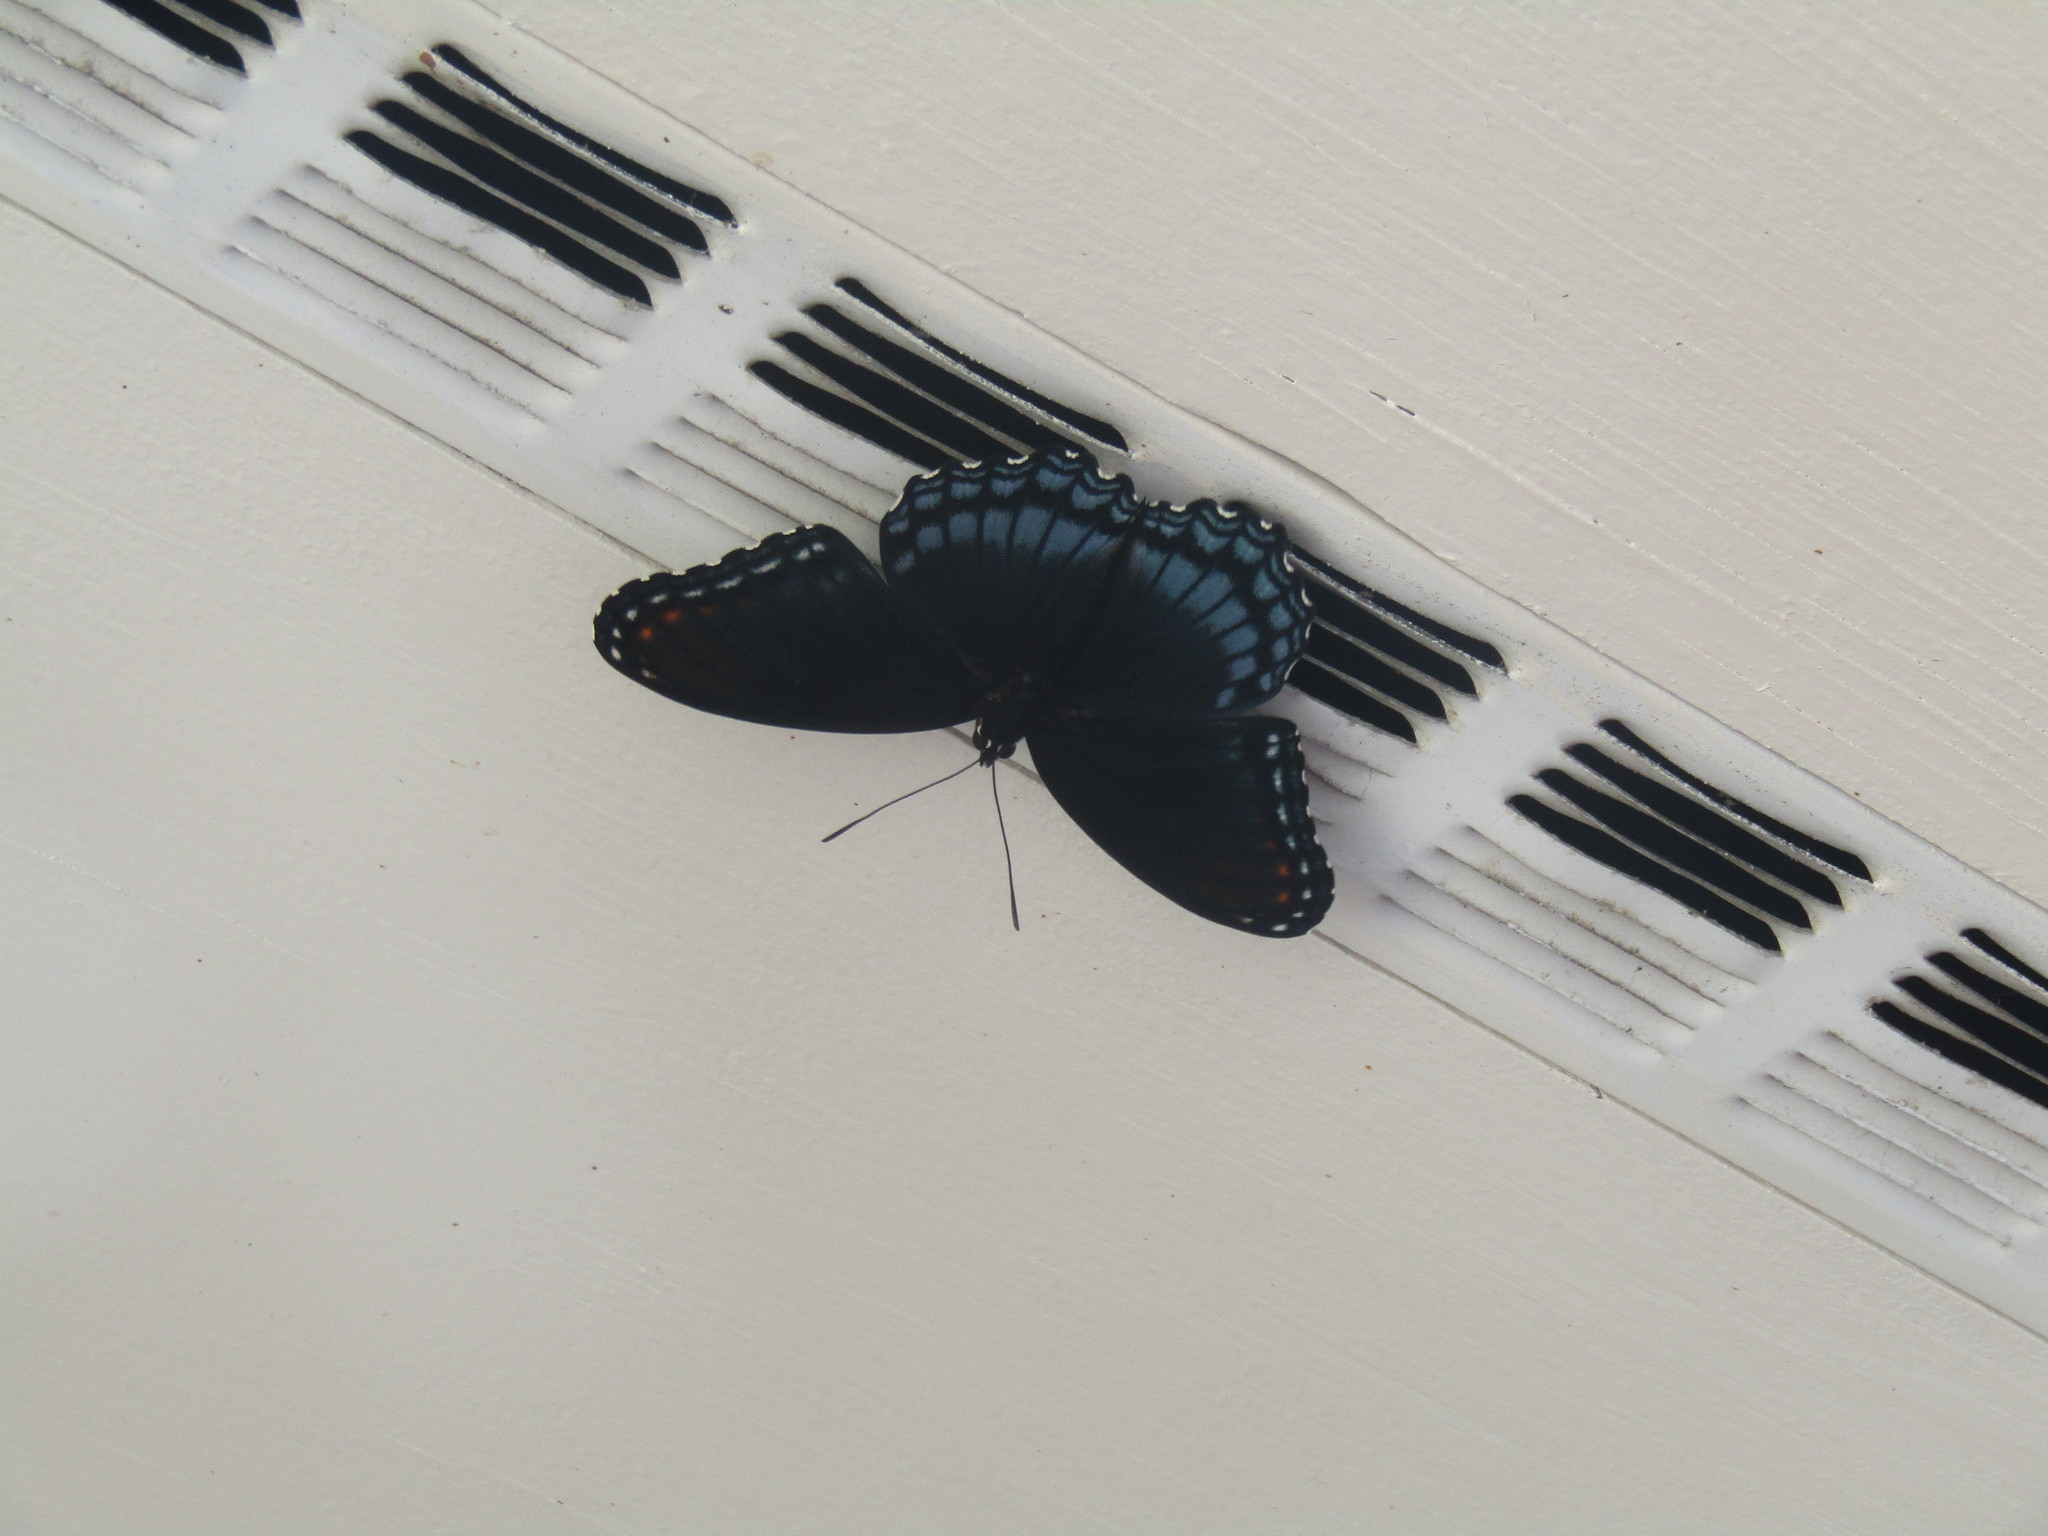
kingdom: Animalia
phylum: Arthropoda
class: Insecta
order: Lepidoptera
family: Nymphalidae
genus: Limenitis
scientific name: Limenitis astyanax
